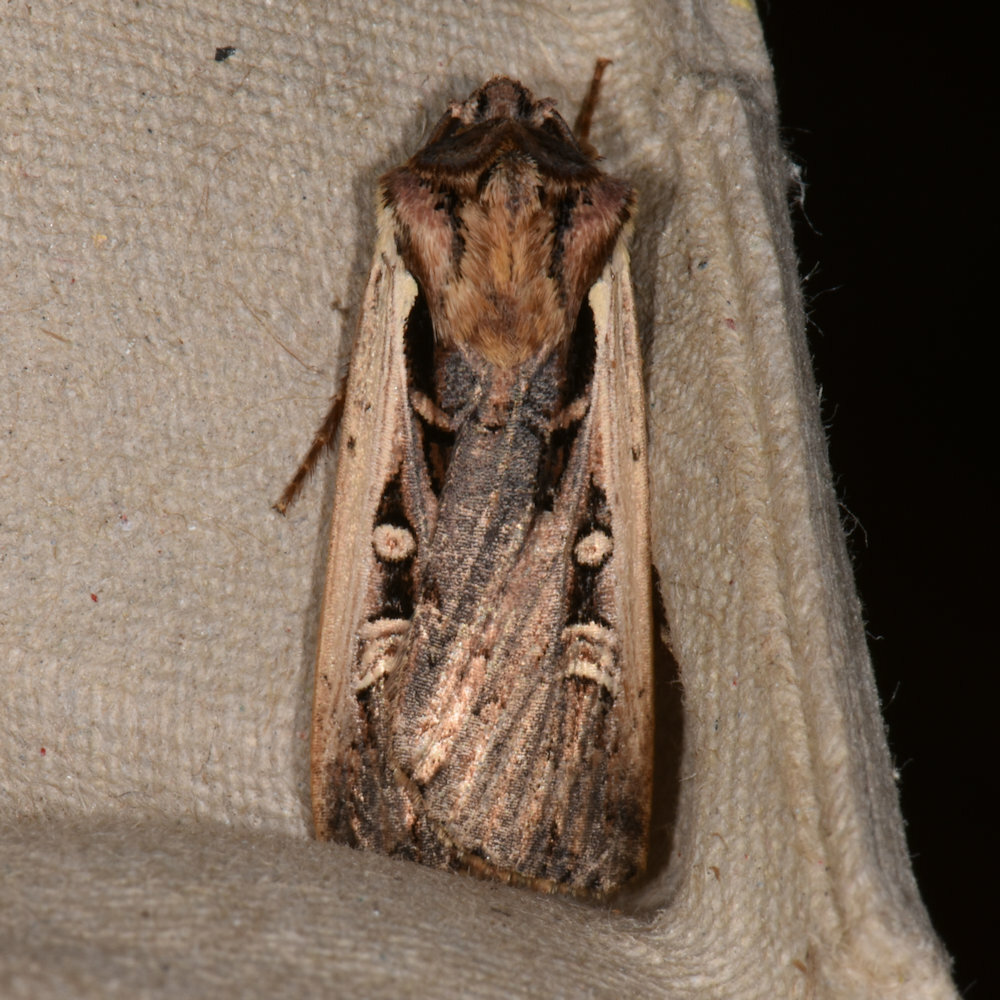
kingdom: Animalia
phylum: Arthropoda
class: Insecta
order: Lepidoptera
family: Noctuidae
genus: Striacosta
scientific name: Striacosta albicosta
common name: Western bean cutworm moth
